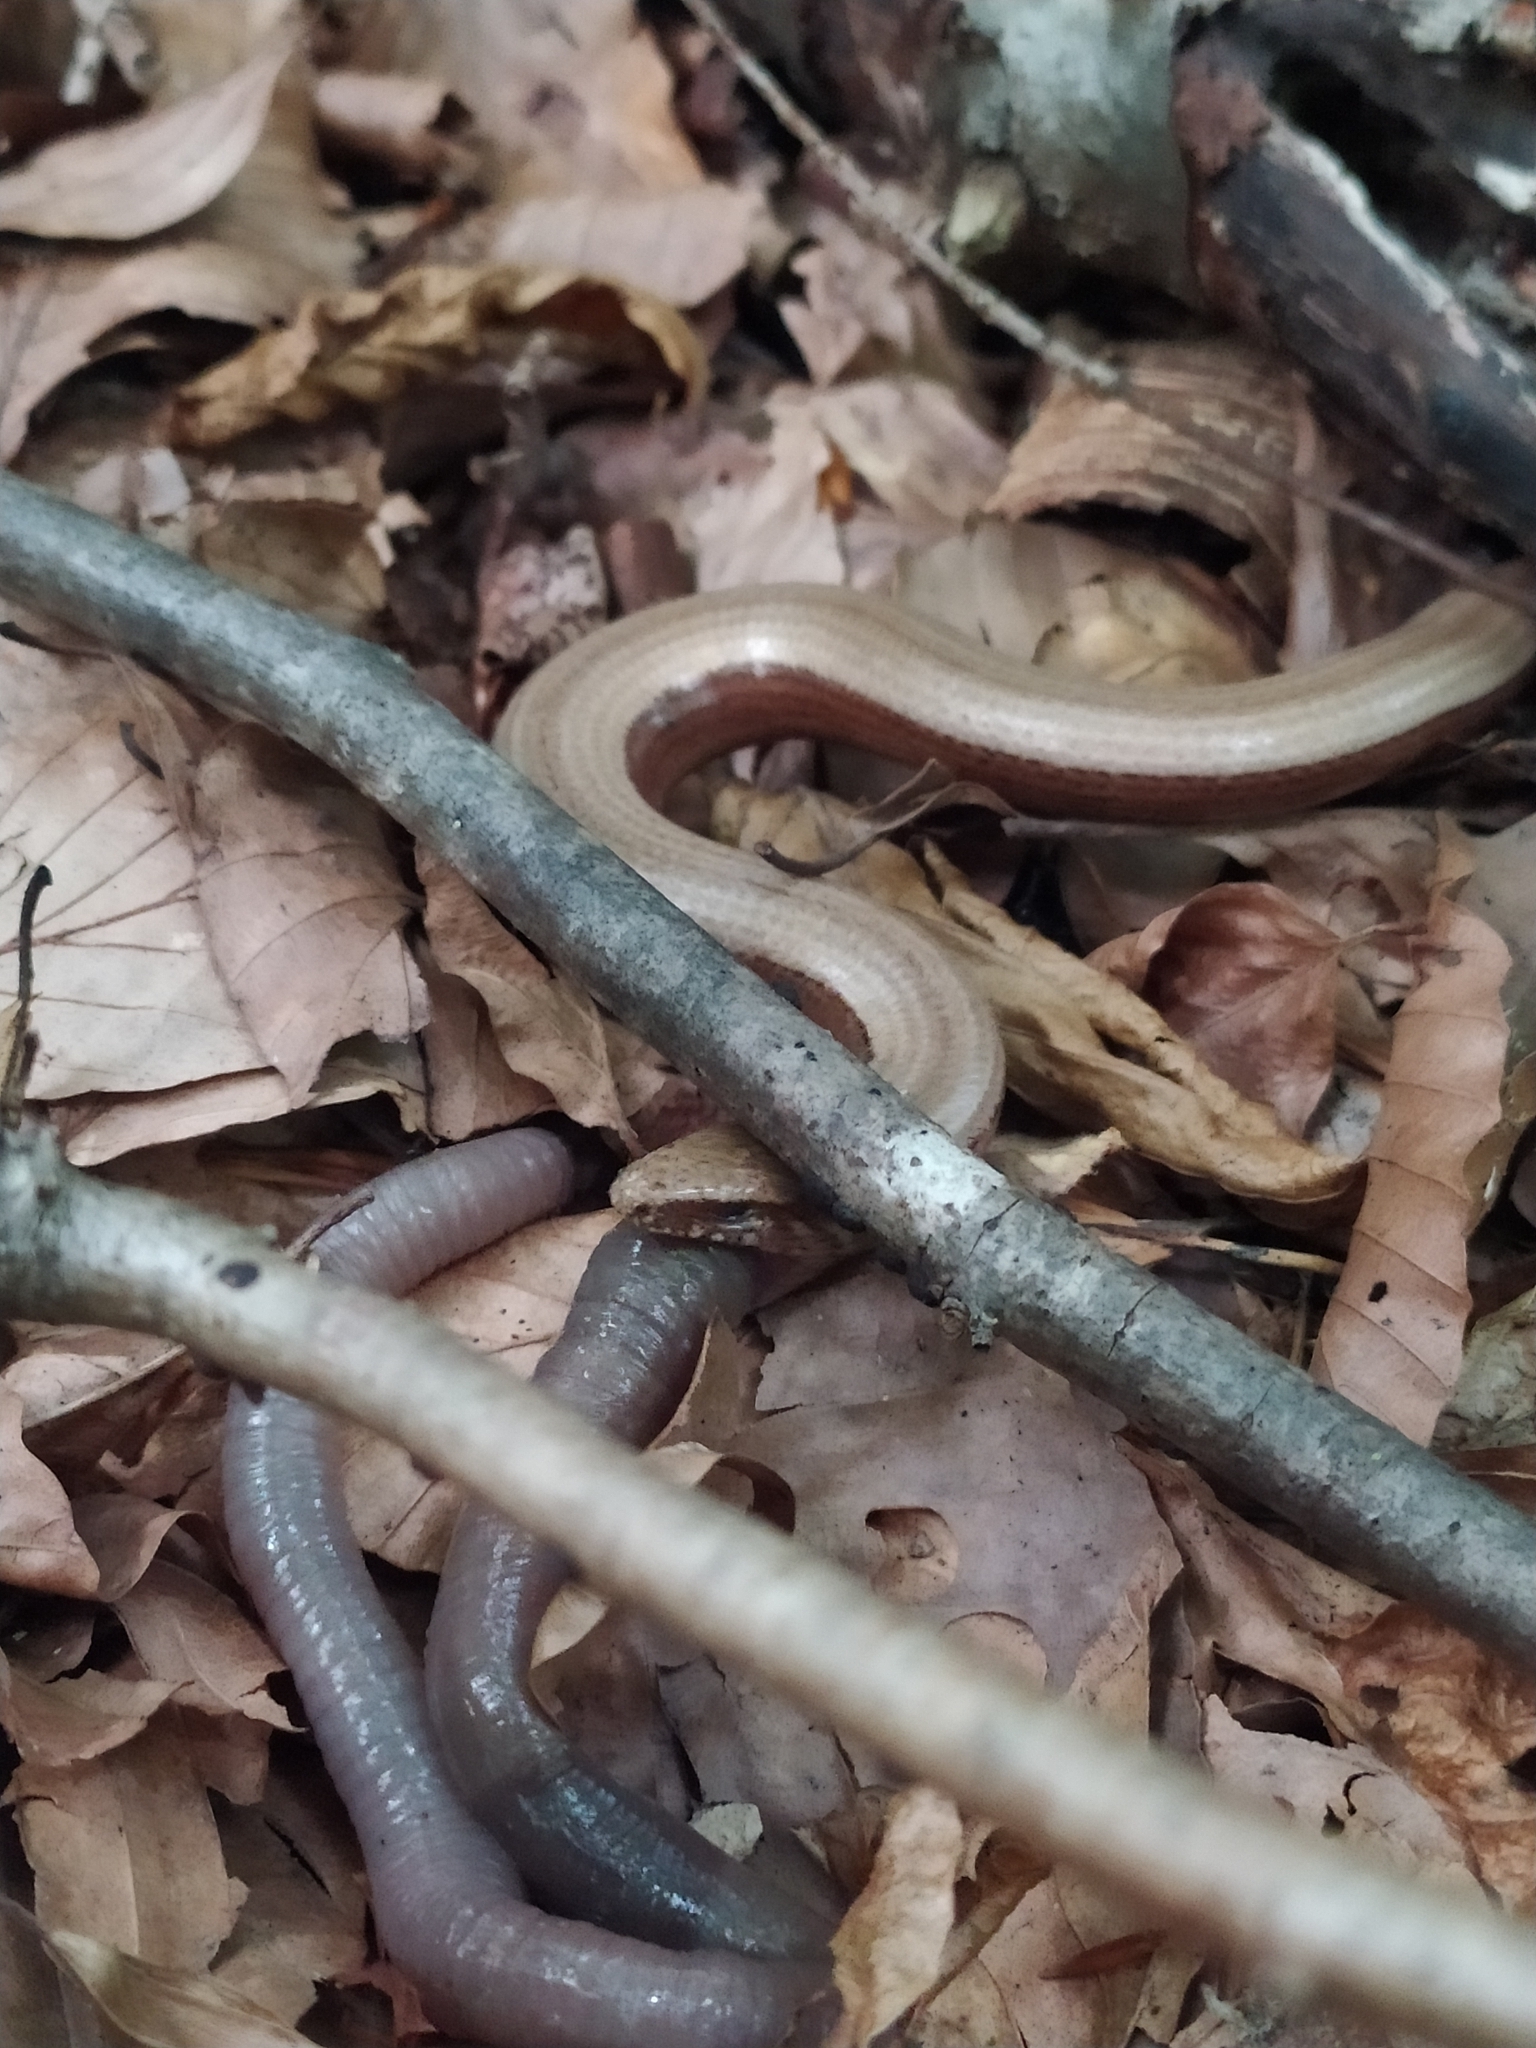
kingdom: Animalia
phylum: Chordata
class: Squamata
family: Anguidae
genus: Anguis
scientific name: Anguis fragilis
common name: Slow worm
